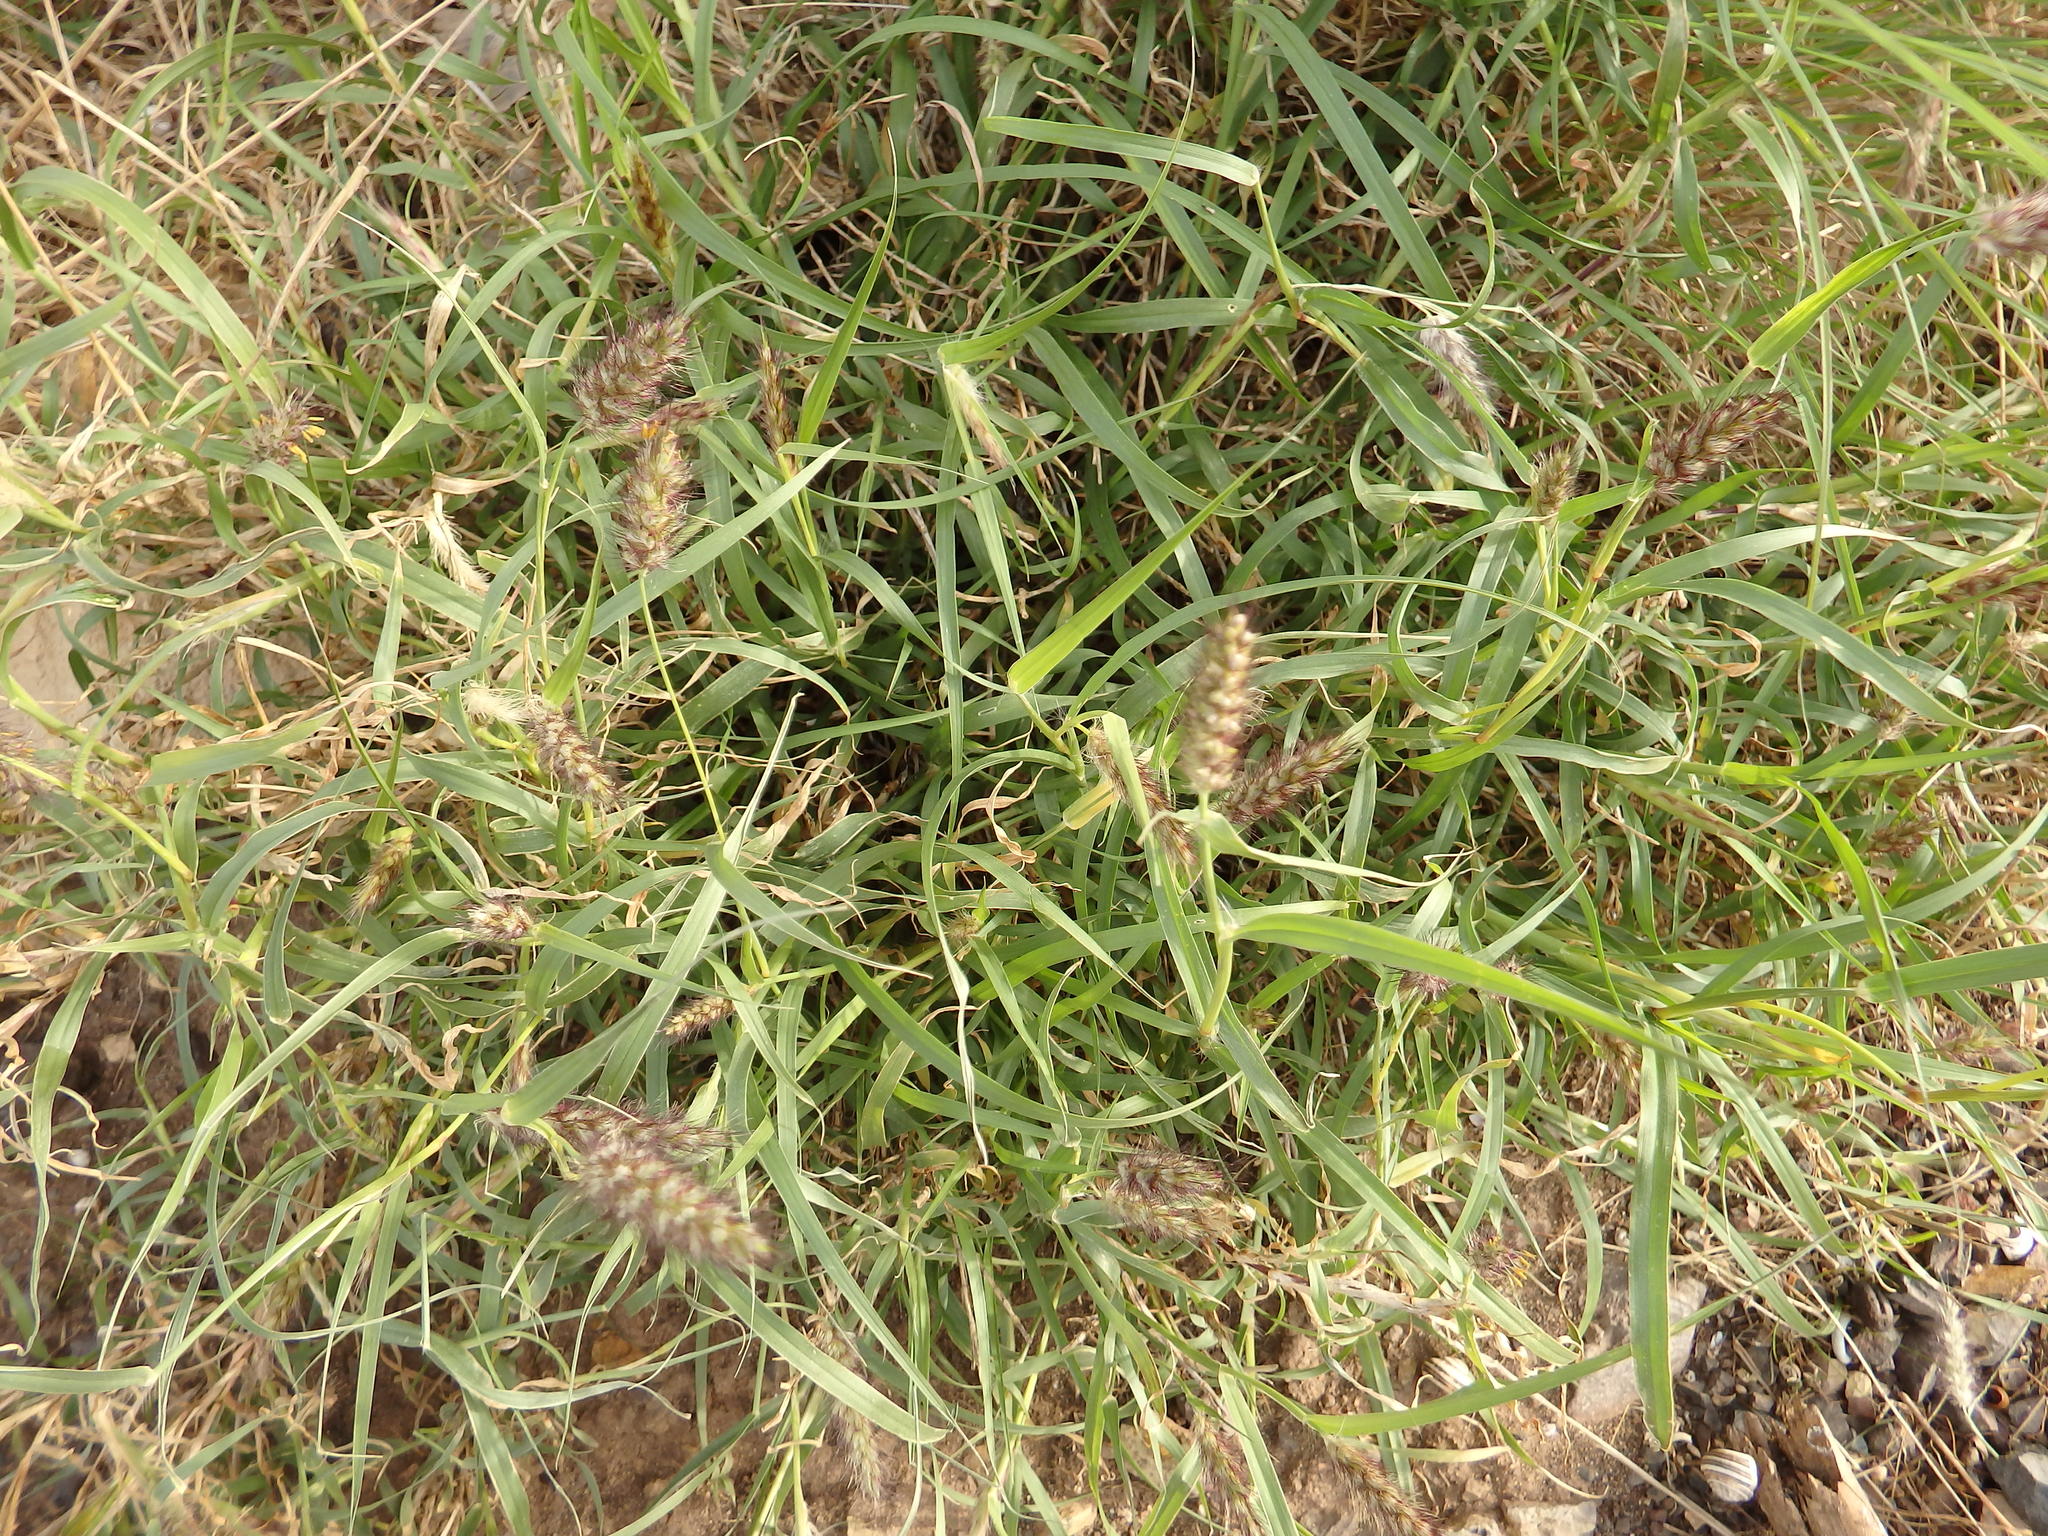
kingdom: Plantae
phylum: Tracheophyta
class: Liliopsida
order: Poales
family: Poaceae
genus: Cenchrus
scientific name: Cenchrus ciliaris
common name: Buffelgrass
